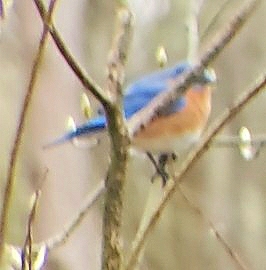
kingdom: Animalia
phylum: Chordata
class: Aves
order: Passeriformes
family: Turdidae
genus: Sialia
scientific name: Sialia sialis
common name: Eastern bluebird
